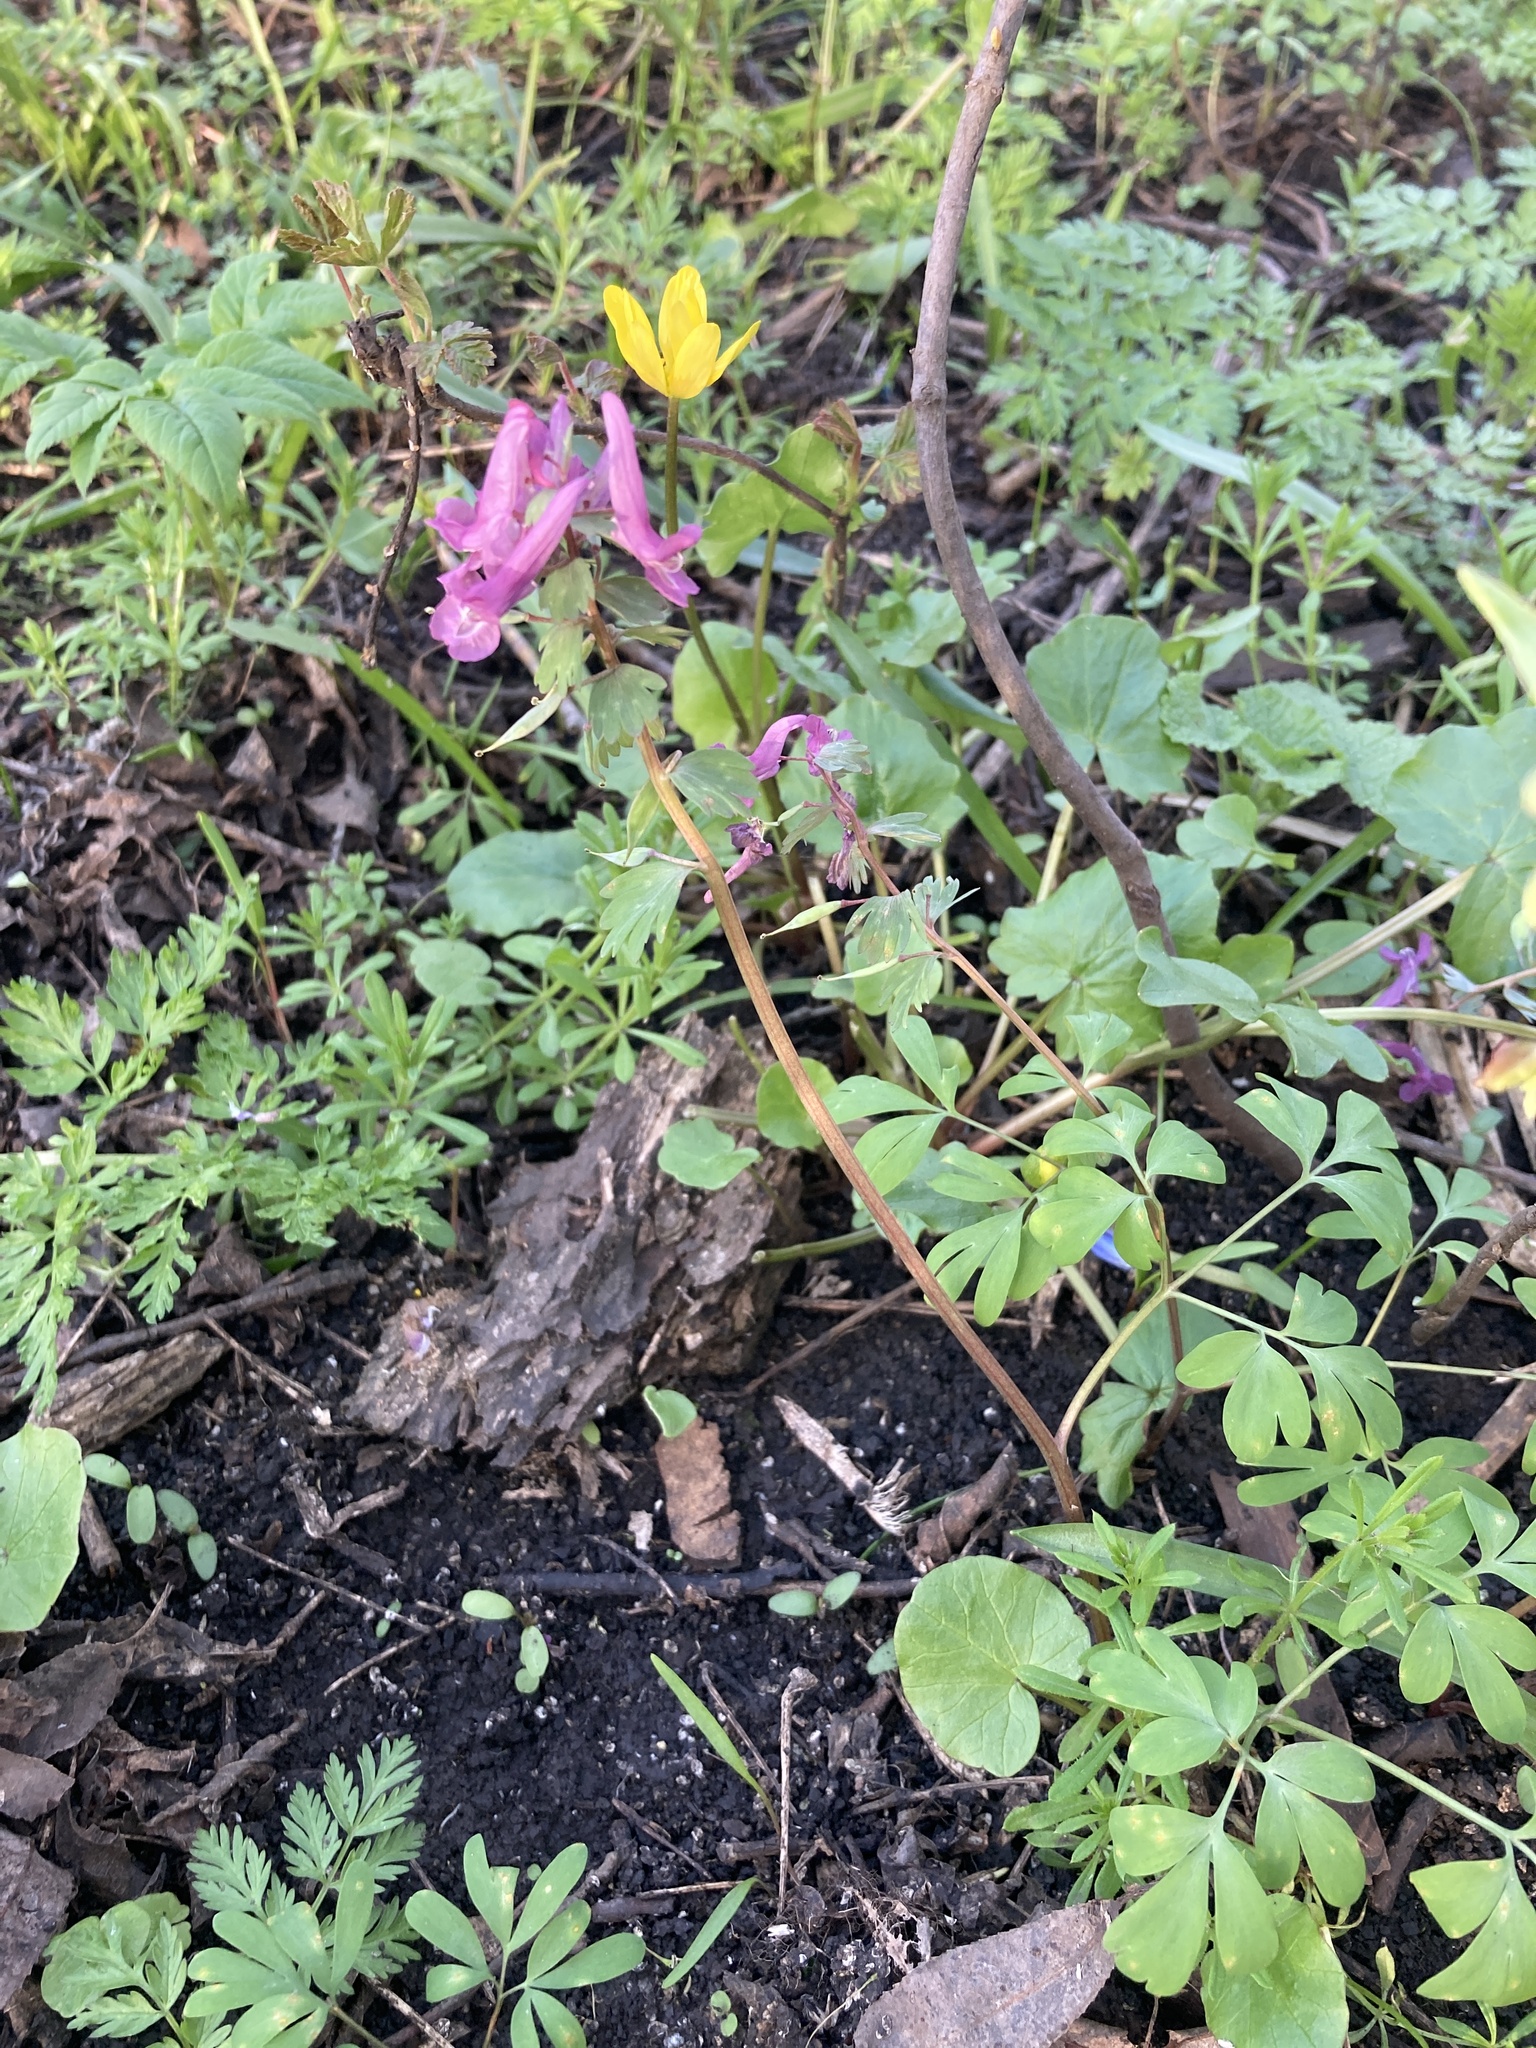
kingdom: Plantae
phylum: Tracheophyta
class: Magnoliopsida
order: Ranunculales
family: Papaveraceae
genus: Corydalis
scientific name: Corydalis solida
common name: Bird-in-a-bush
